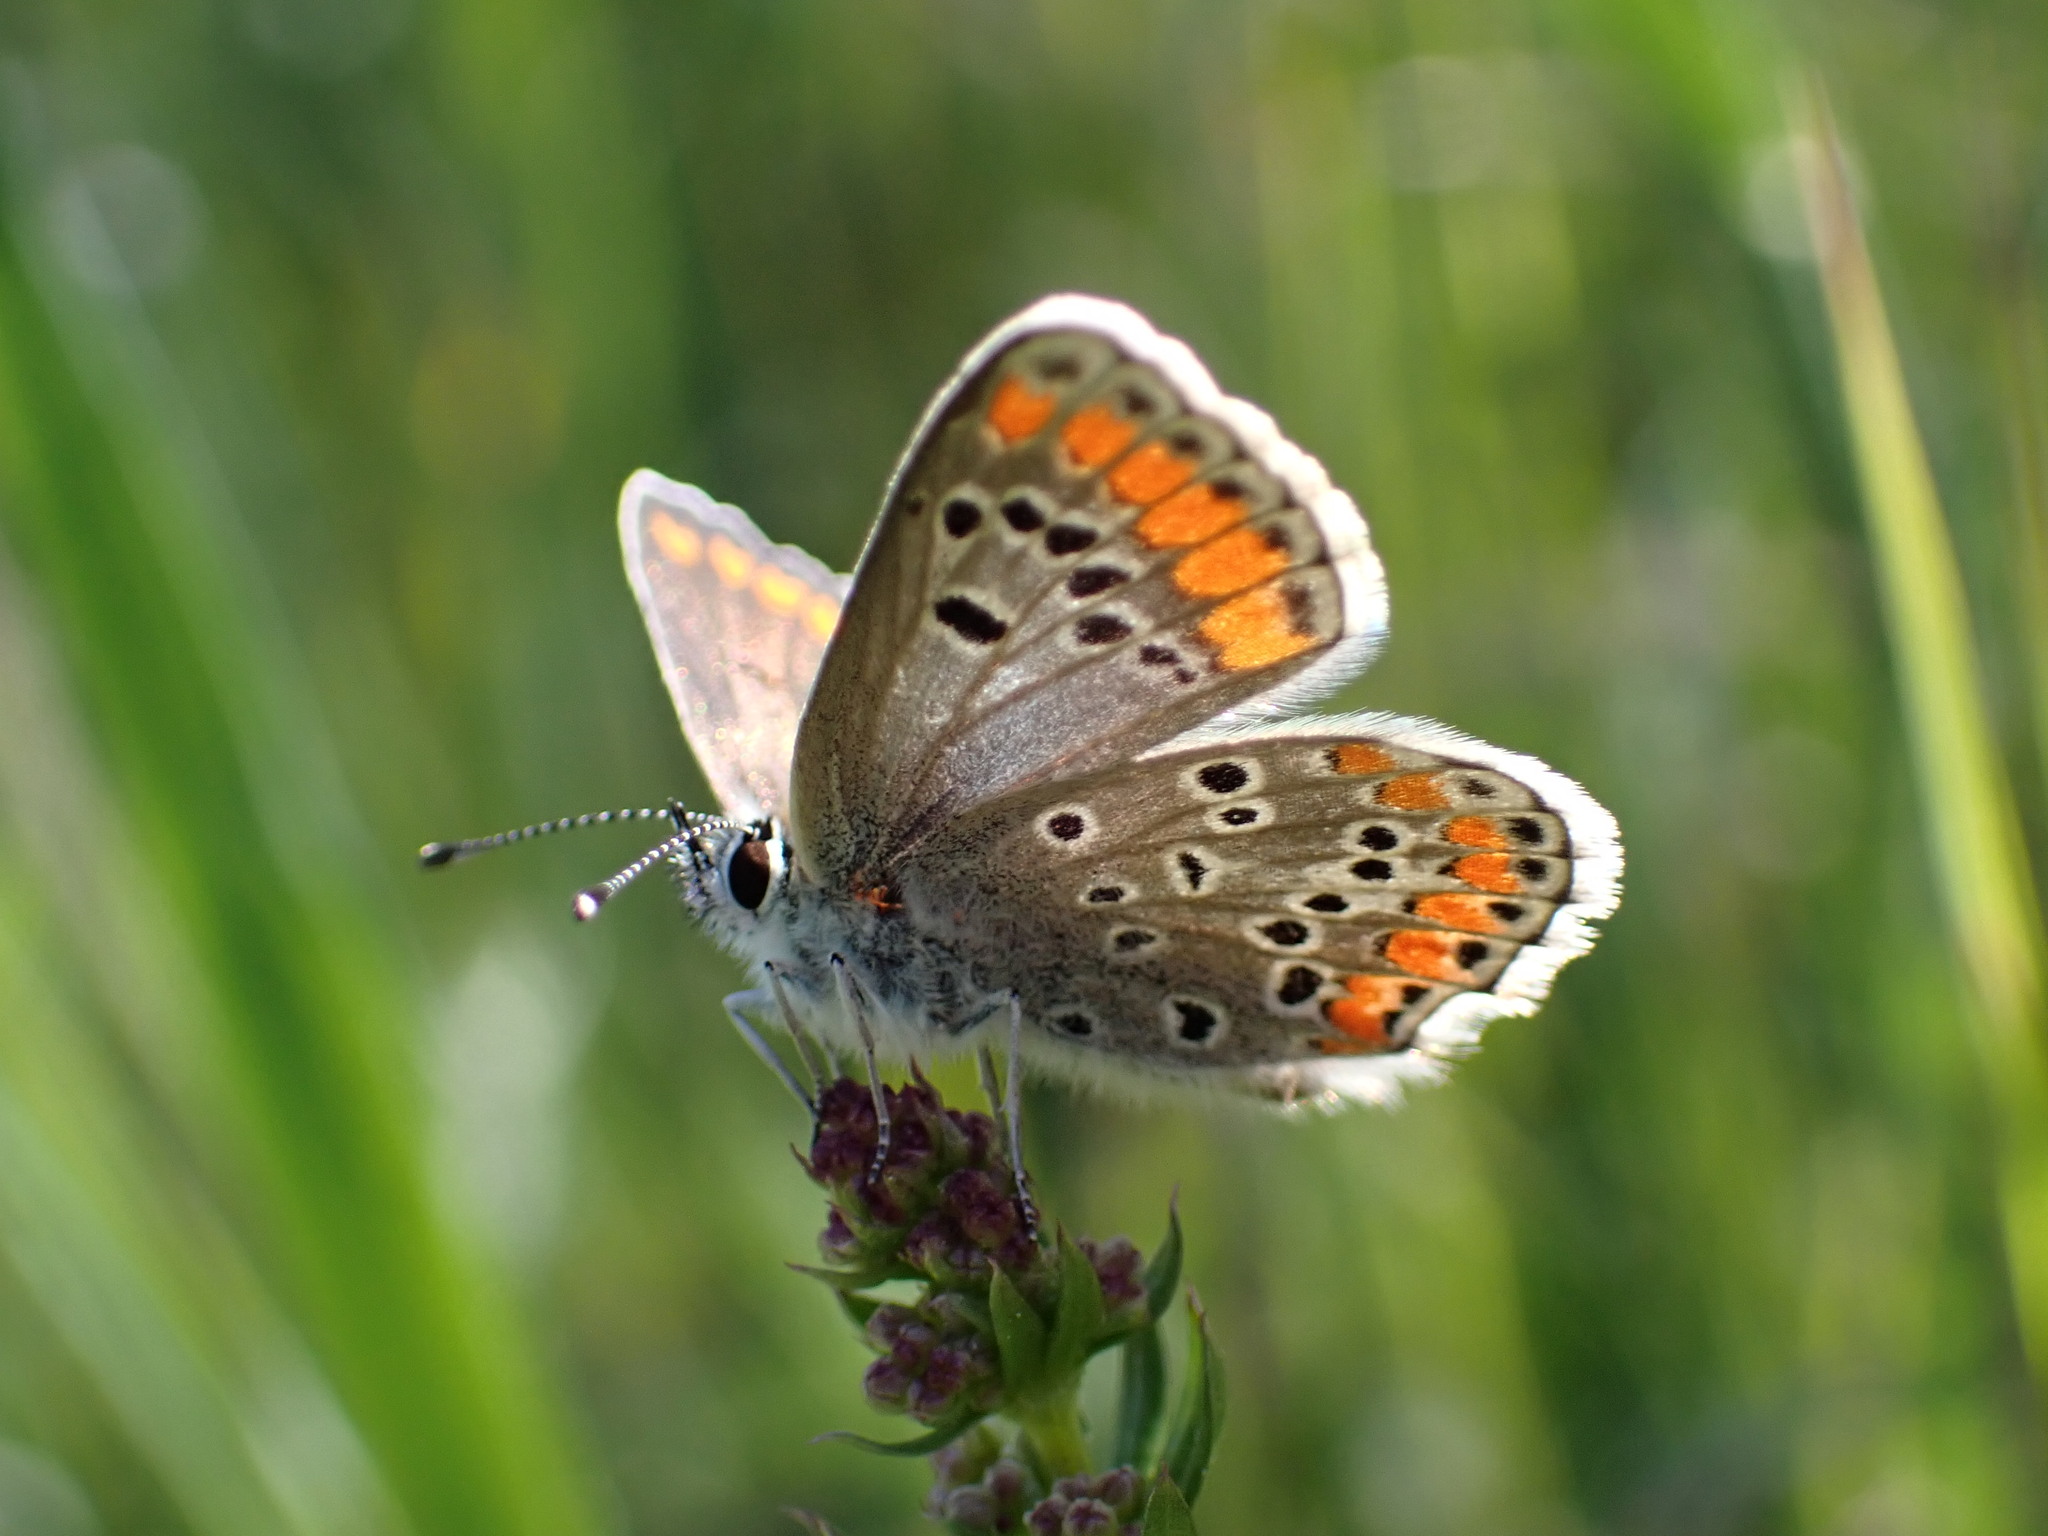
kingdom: Animalia
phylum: Arthropoda
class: Insecta
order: Lepidoptera
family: Lycaenidae
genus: Aricia
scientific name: Aricia agestis
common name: Brown argus
